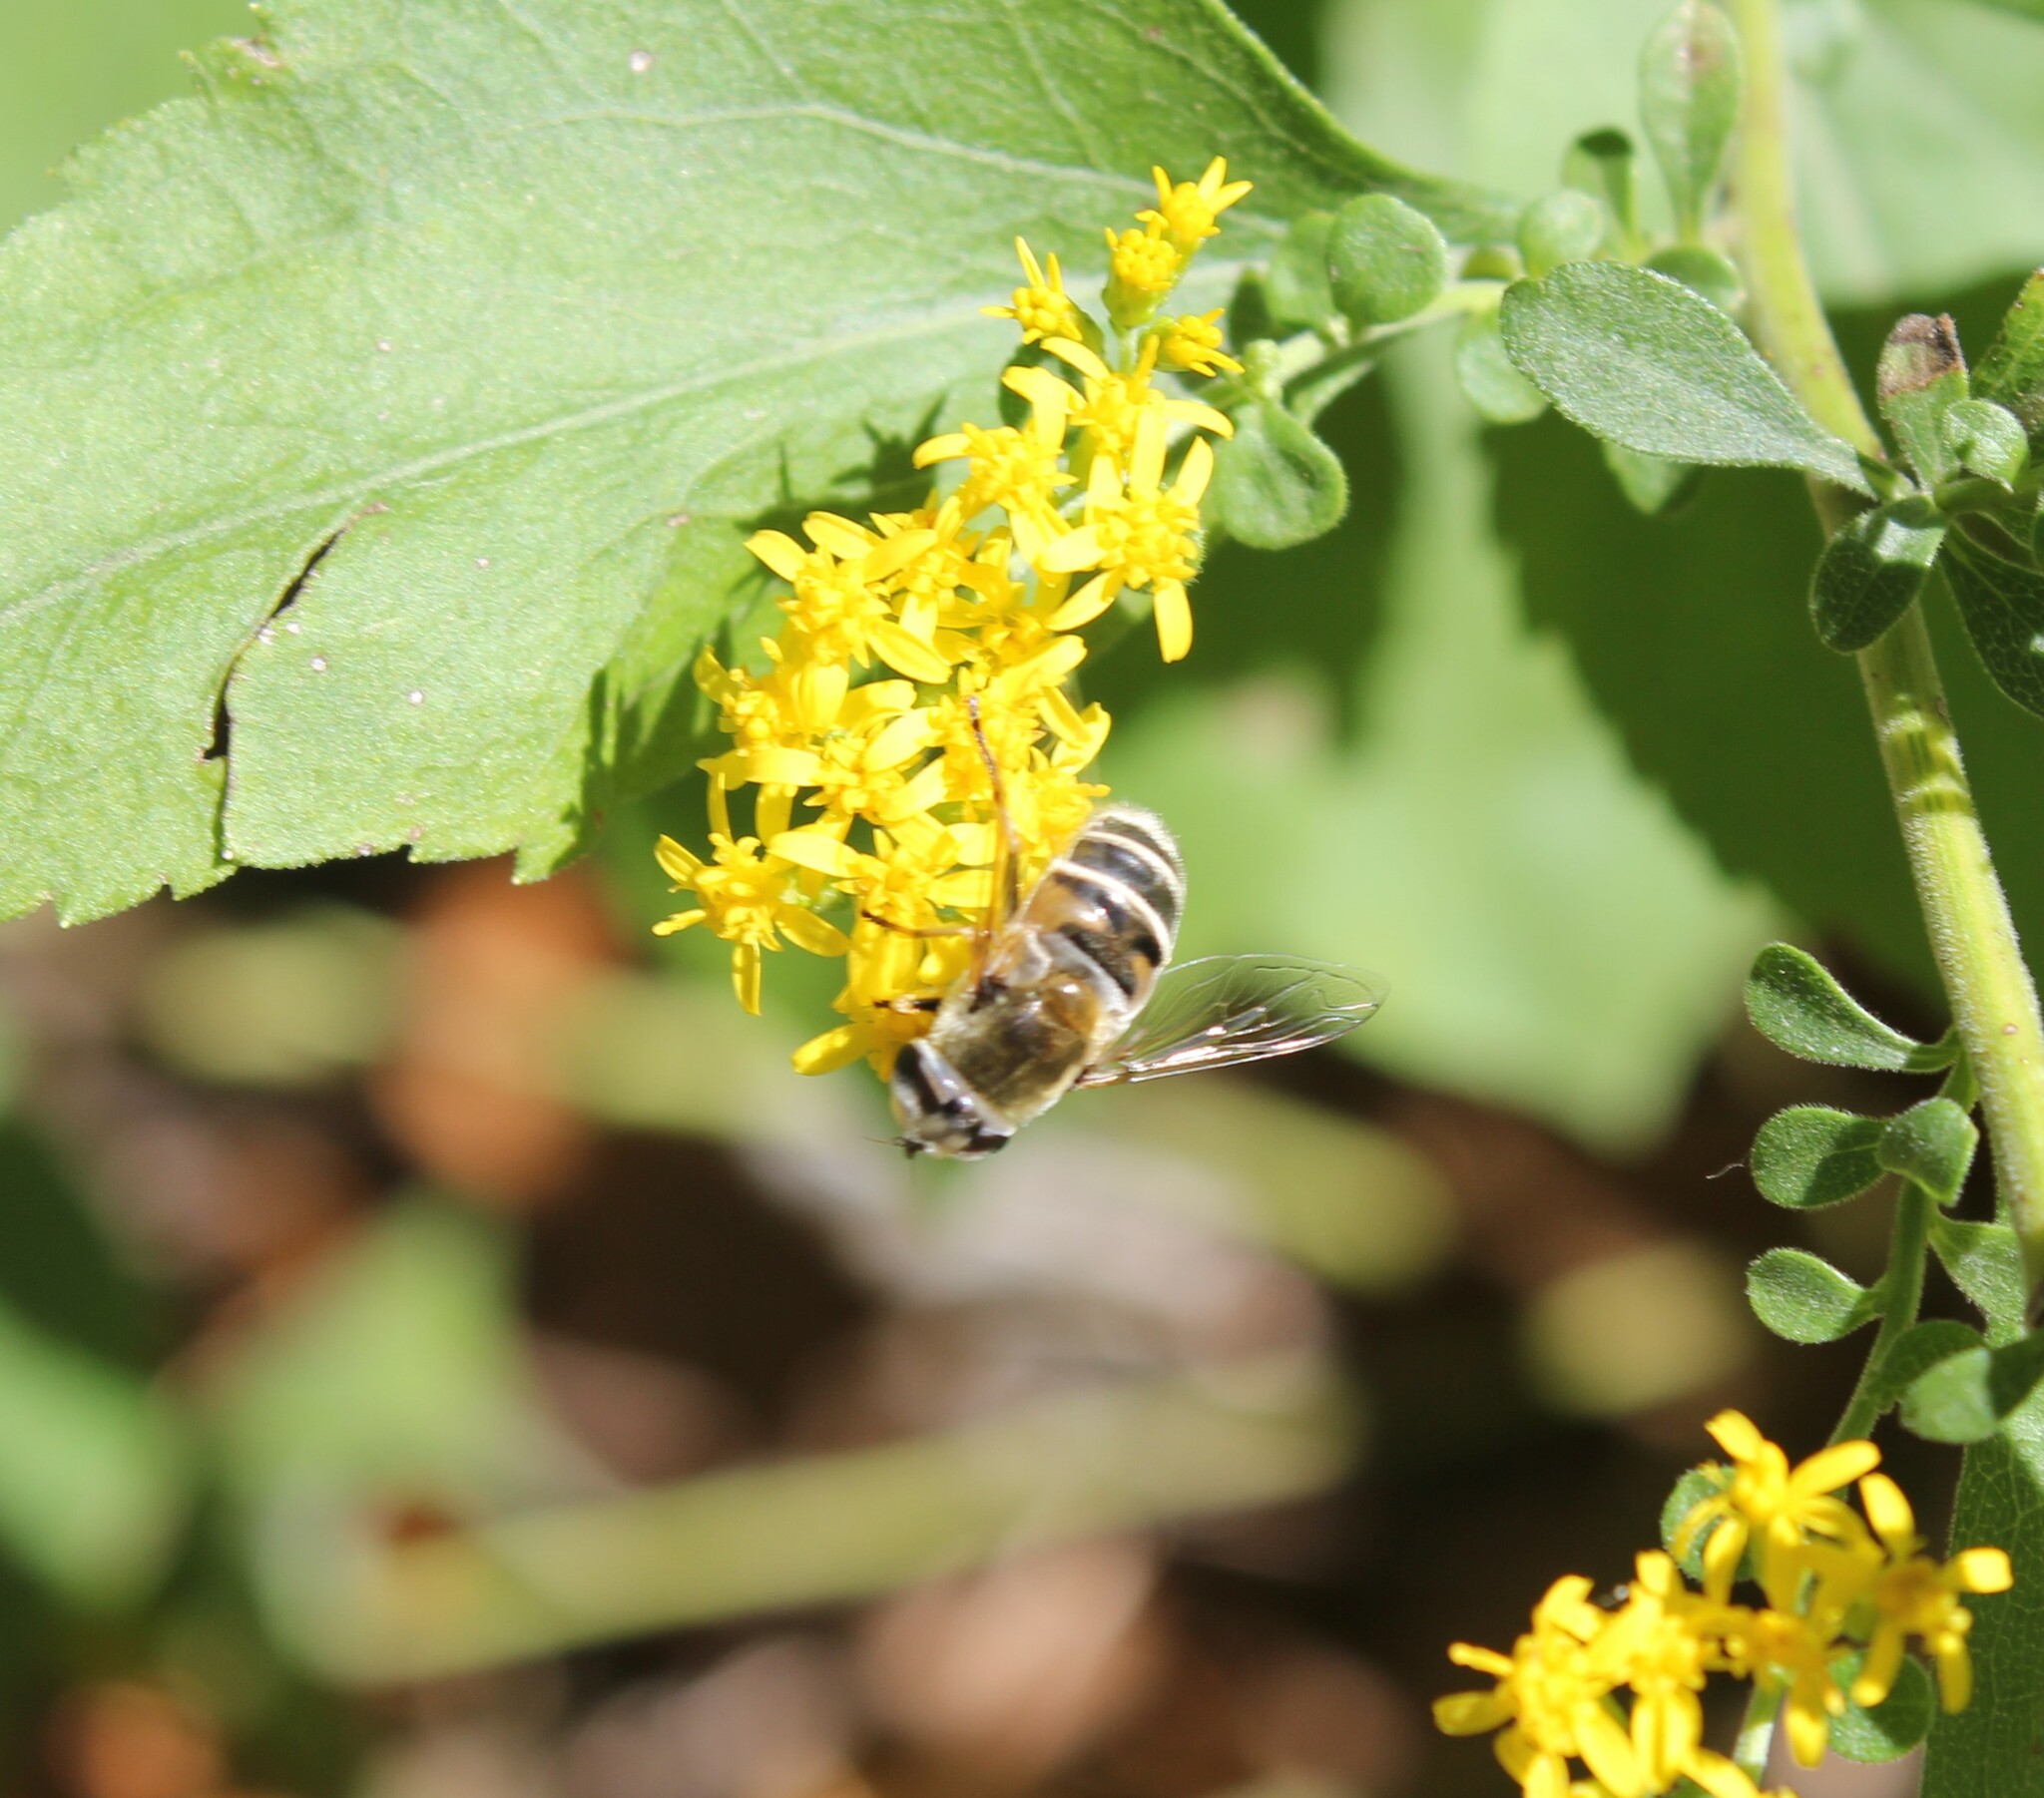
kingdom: Animalia
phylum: Arthropoda
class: Insecta
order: Diptera
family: Syrphidae
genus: Eristalis
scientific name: Eristalis stipator
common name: Yellow-shouldered drone fly
